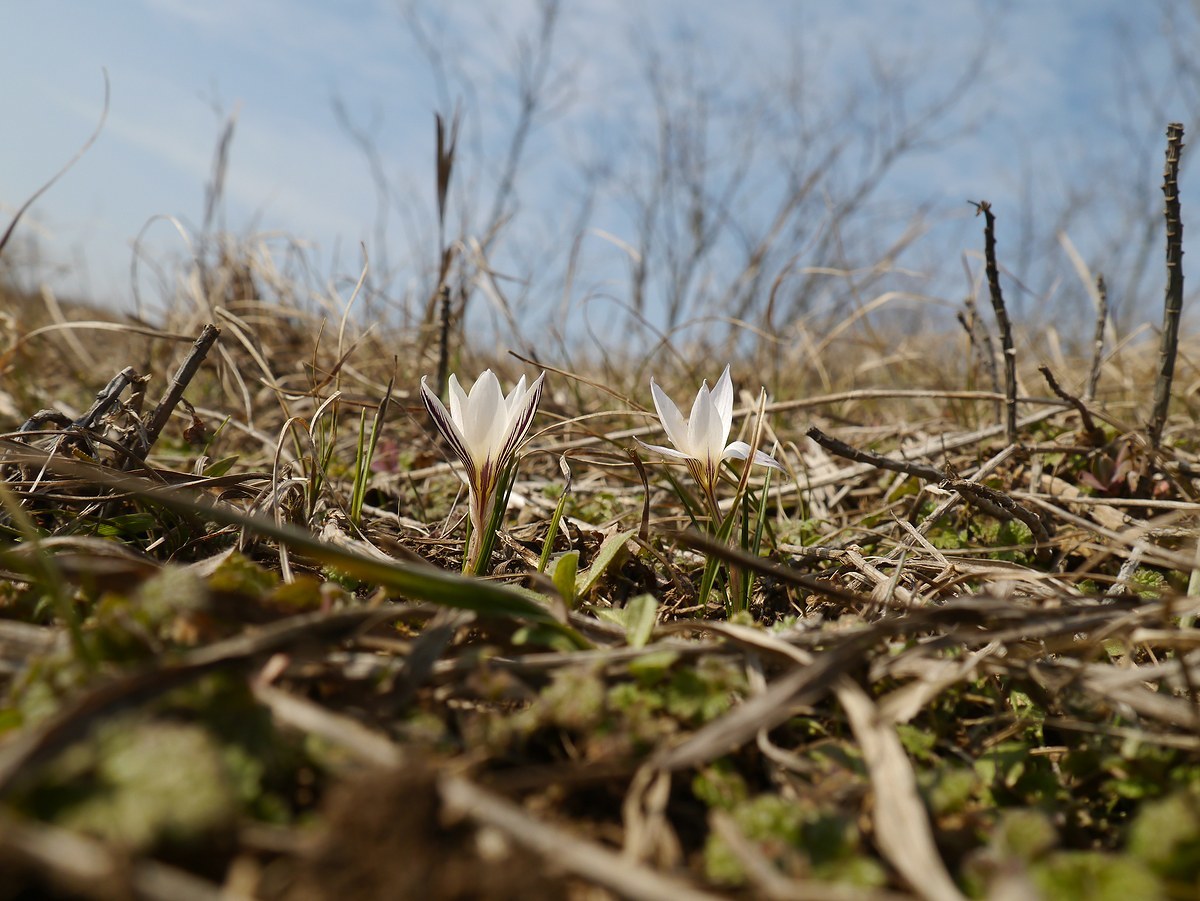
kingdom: Plantae
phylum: Tracheophyta
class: Liliopsida
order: Asparagales
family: Iridaceae
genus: Crocus
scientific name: Crocus reticulatus
